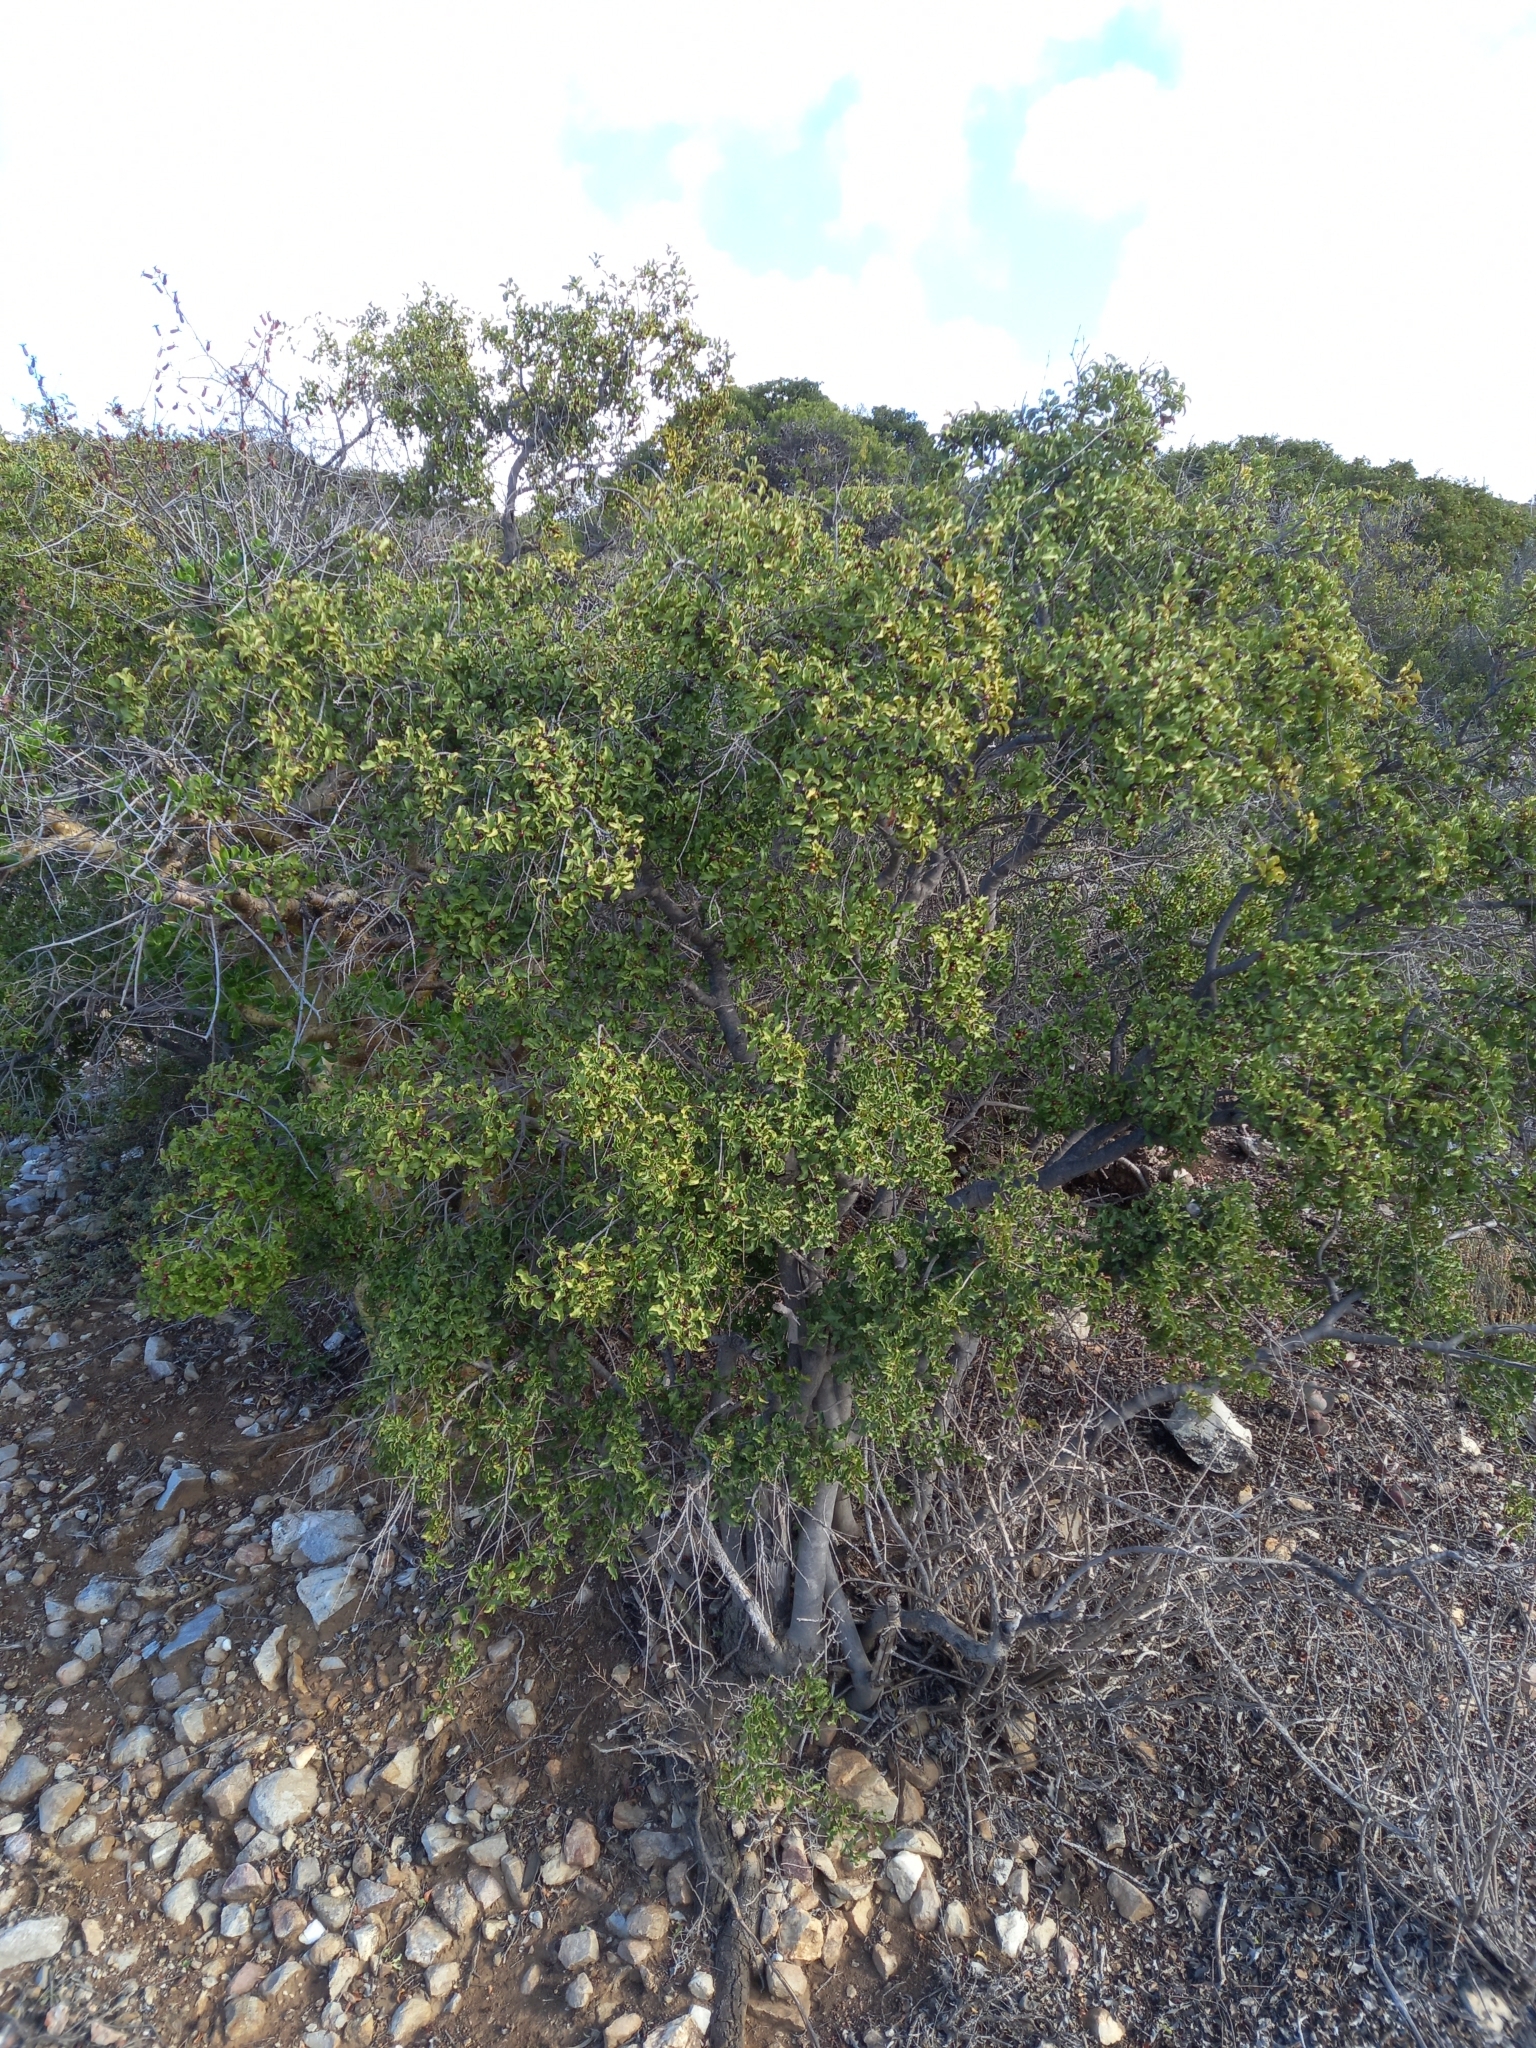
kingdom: Plantae
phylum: Tracheophyta
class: Magnoliopsida
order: Ericales
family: Ebenaceae
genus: Euclea
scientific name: Euclea undulata
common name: Small-leaved guarri
